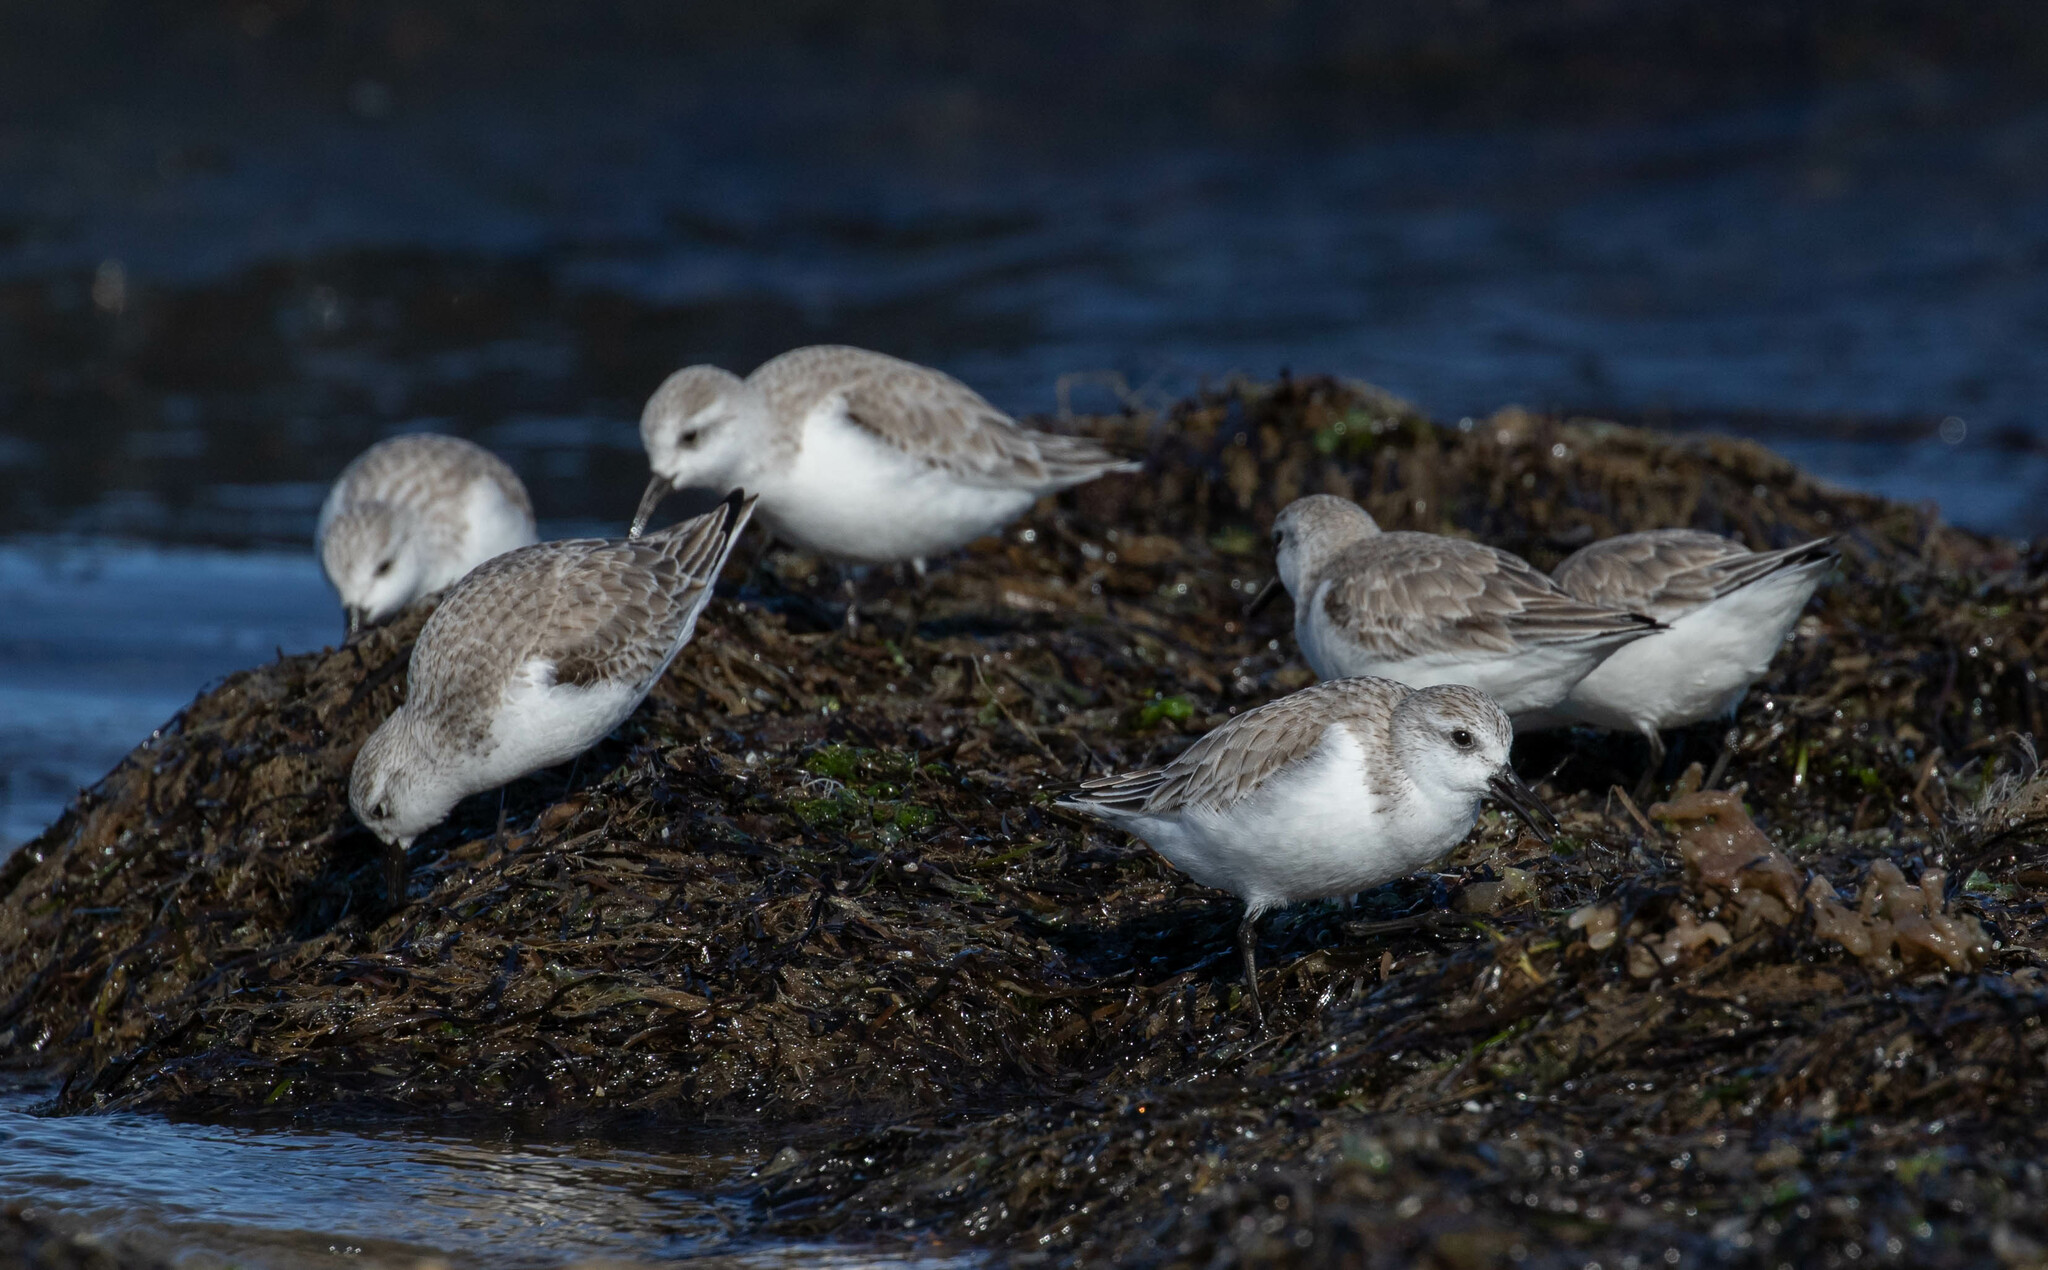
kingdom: Animalia
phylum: Chordata
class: Aves
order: Charadriiformes
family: Scolopacidae
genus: Calidris
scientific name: Calidris alba
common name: Sanderling
